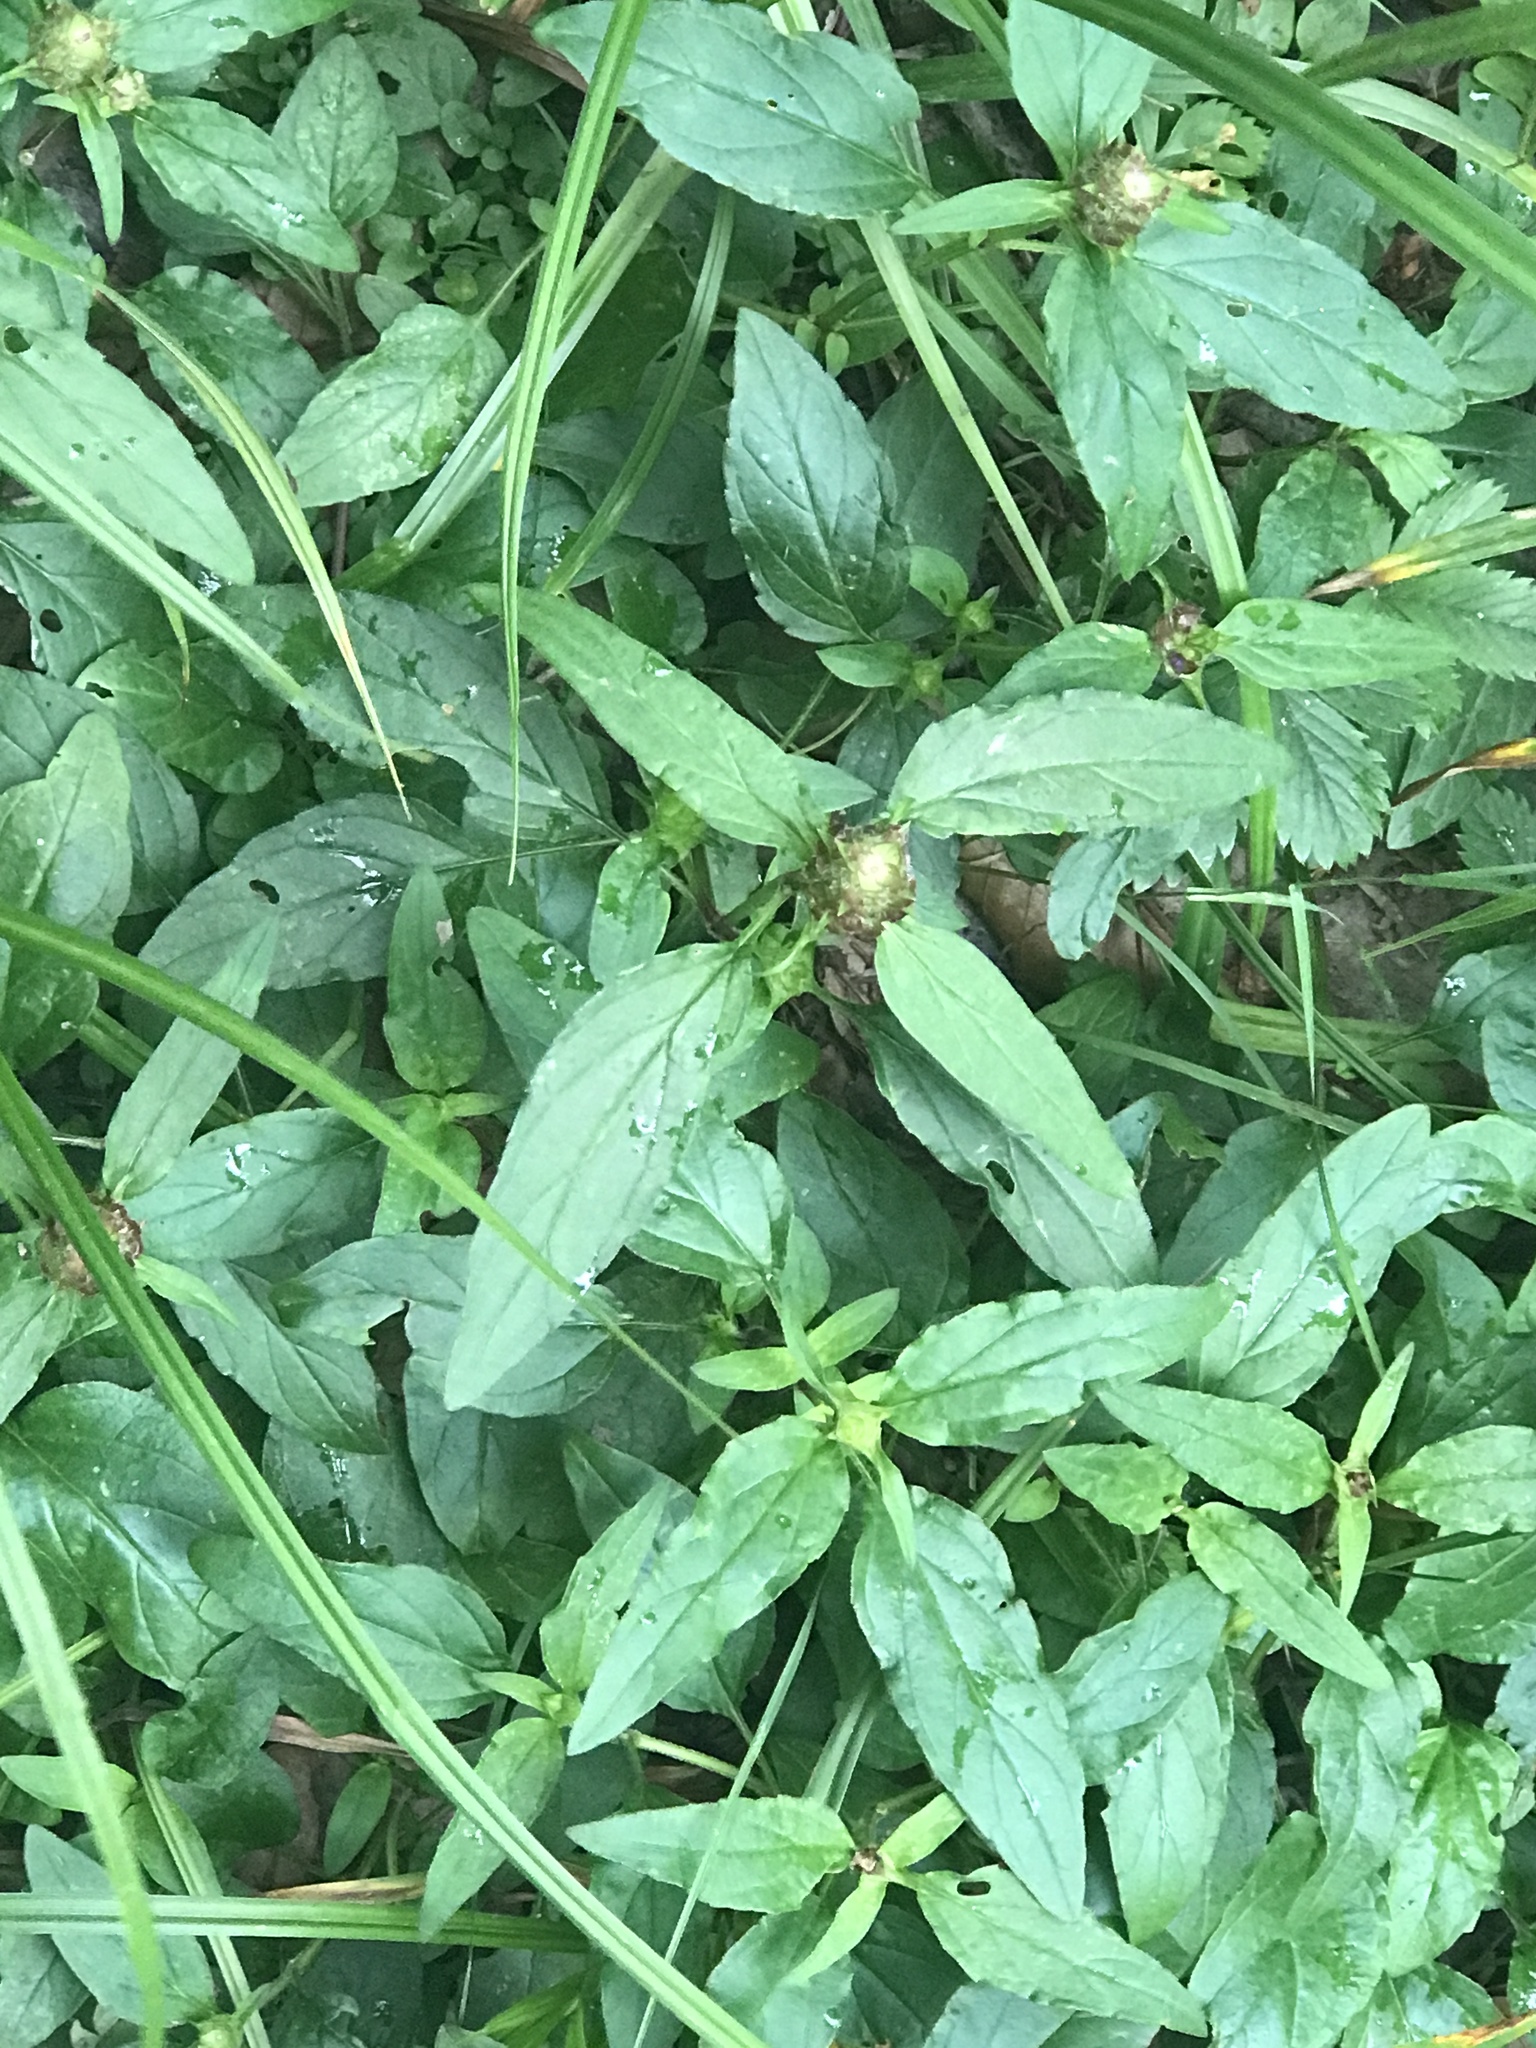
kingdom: Plantae
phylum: Tracheophyta
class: Magnoliopsida
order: Lamiales
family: Lamiaceae
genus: Prunella
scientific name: Prunella vulgaris
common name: Heal-all
